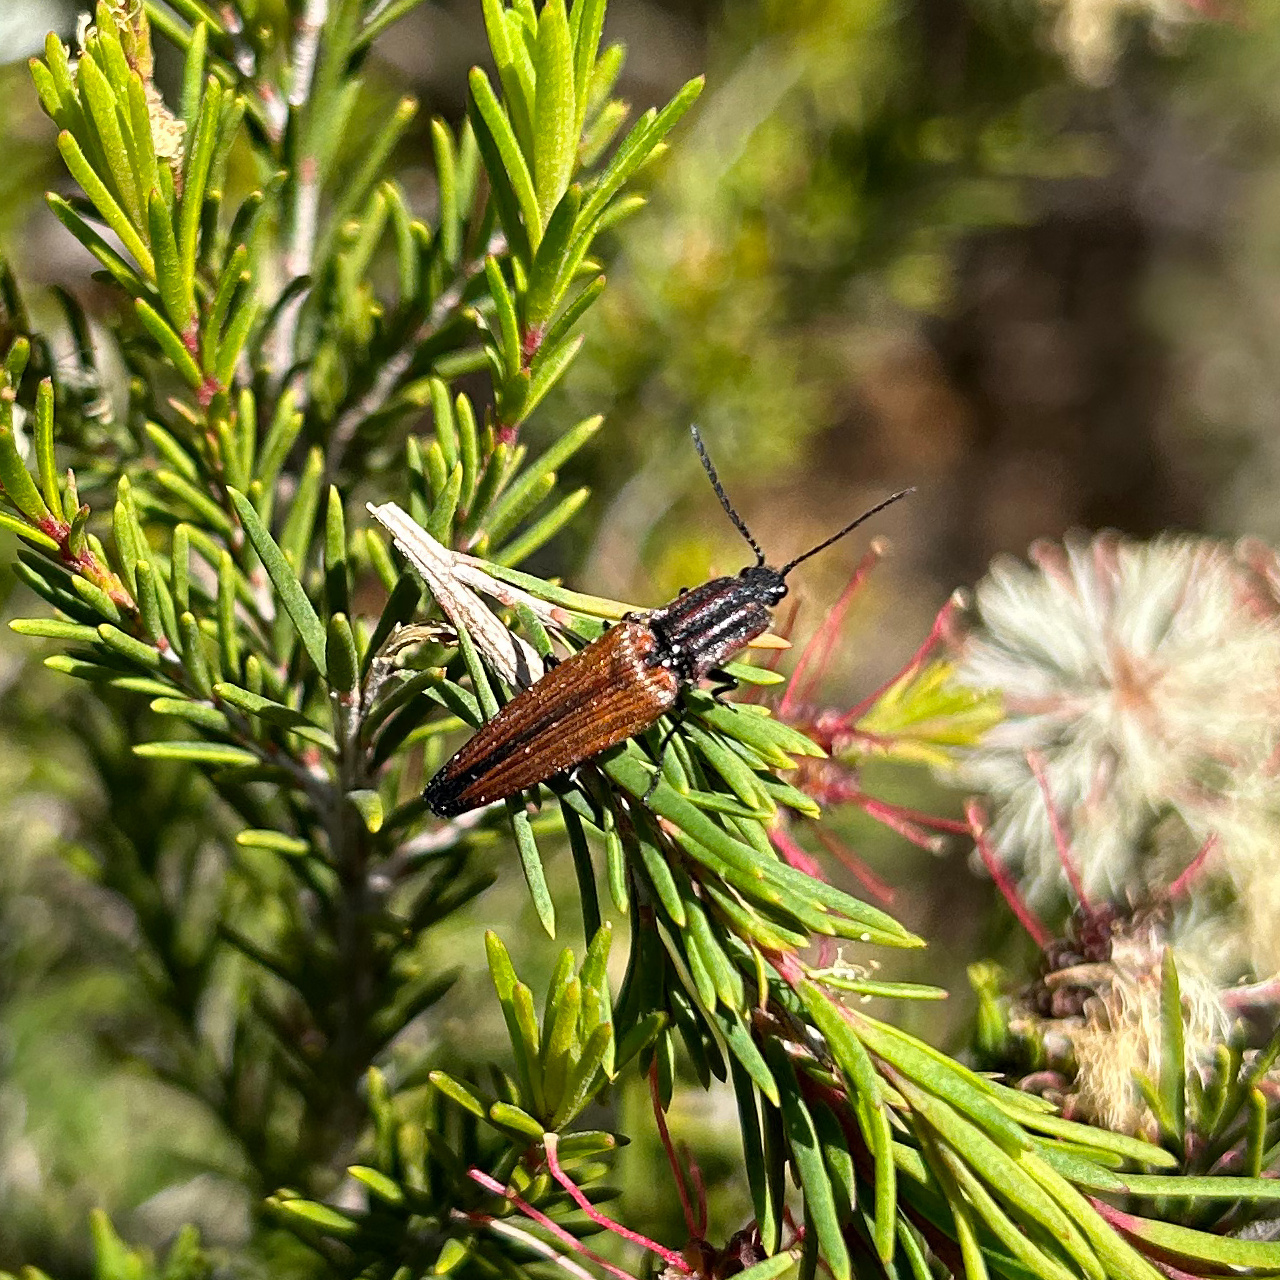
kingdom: Animalia
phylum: Arthropoda
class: Insecta
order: Coleoptera
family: Elateridae
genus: Elatichrosis
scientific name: Elatichrosis
